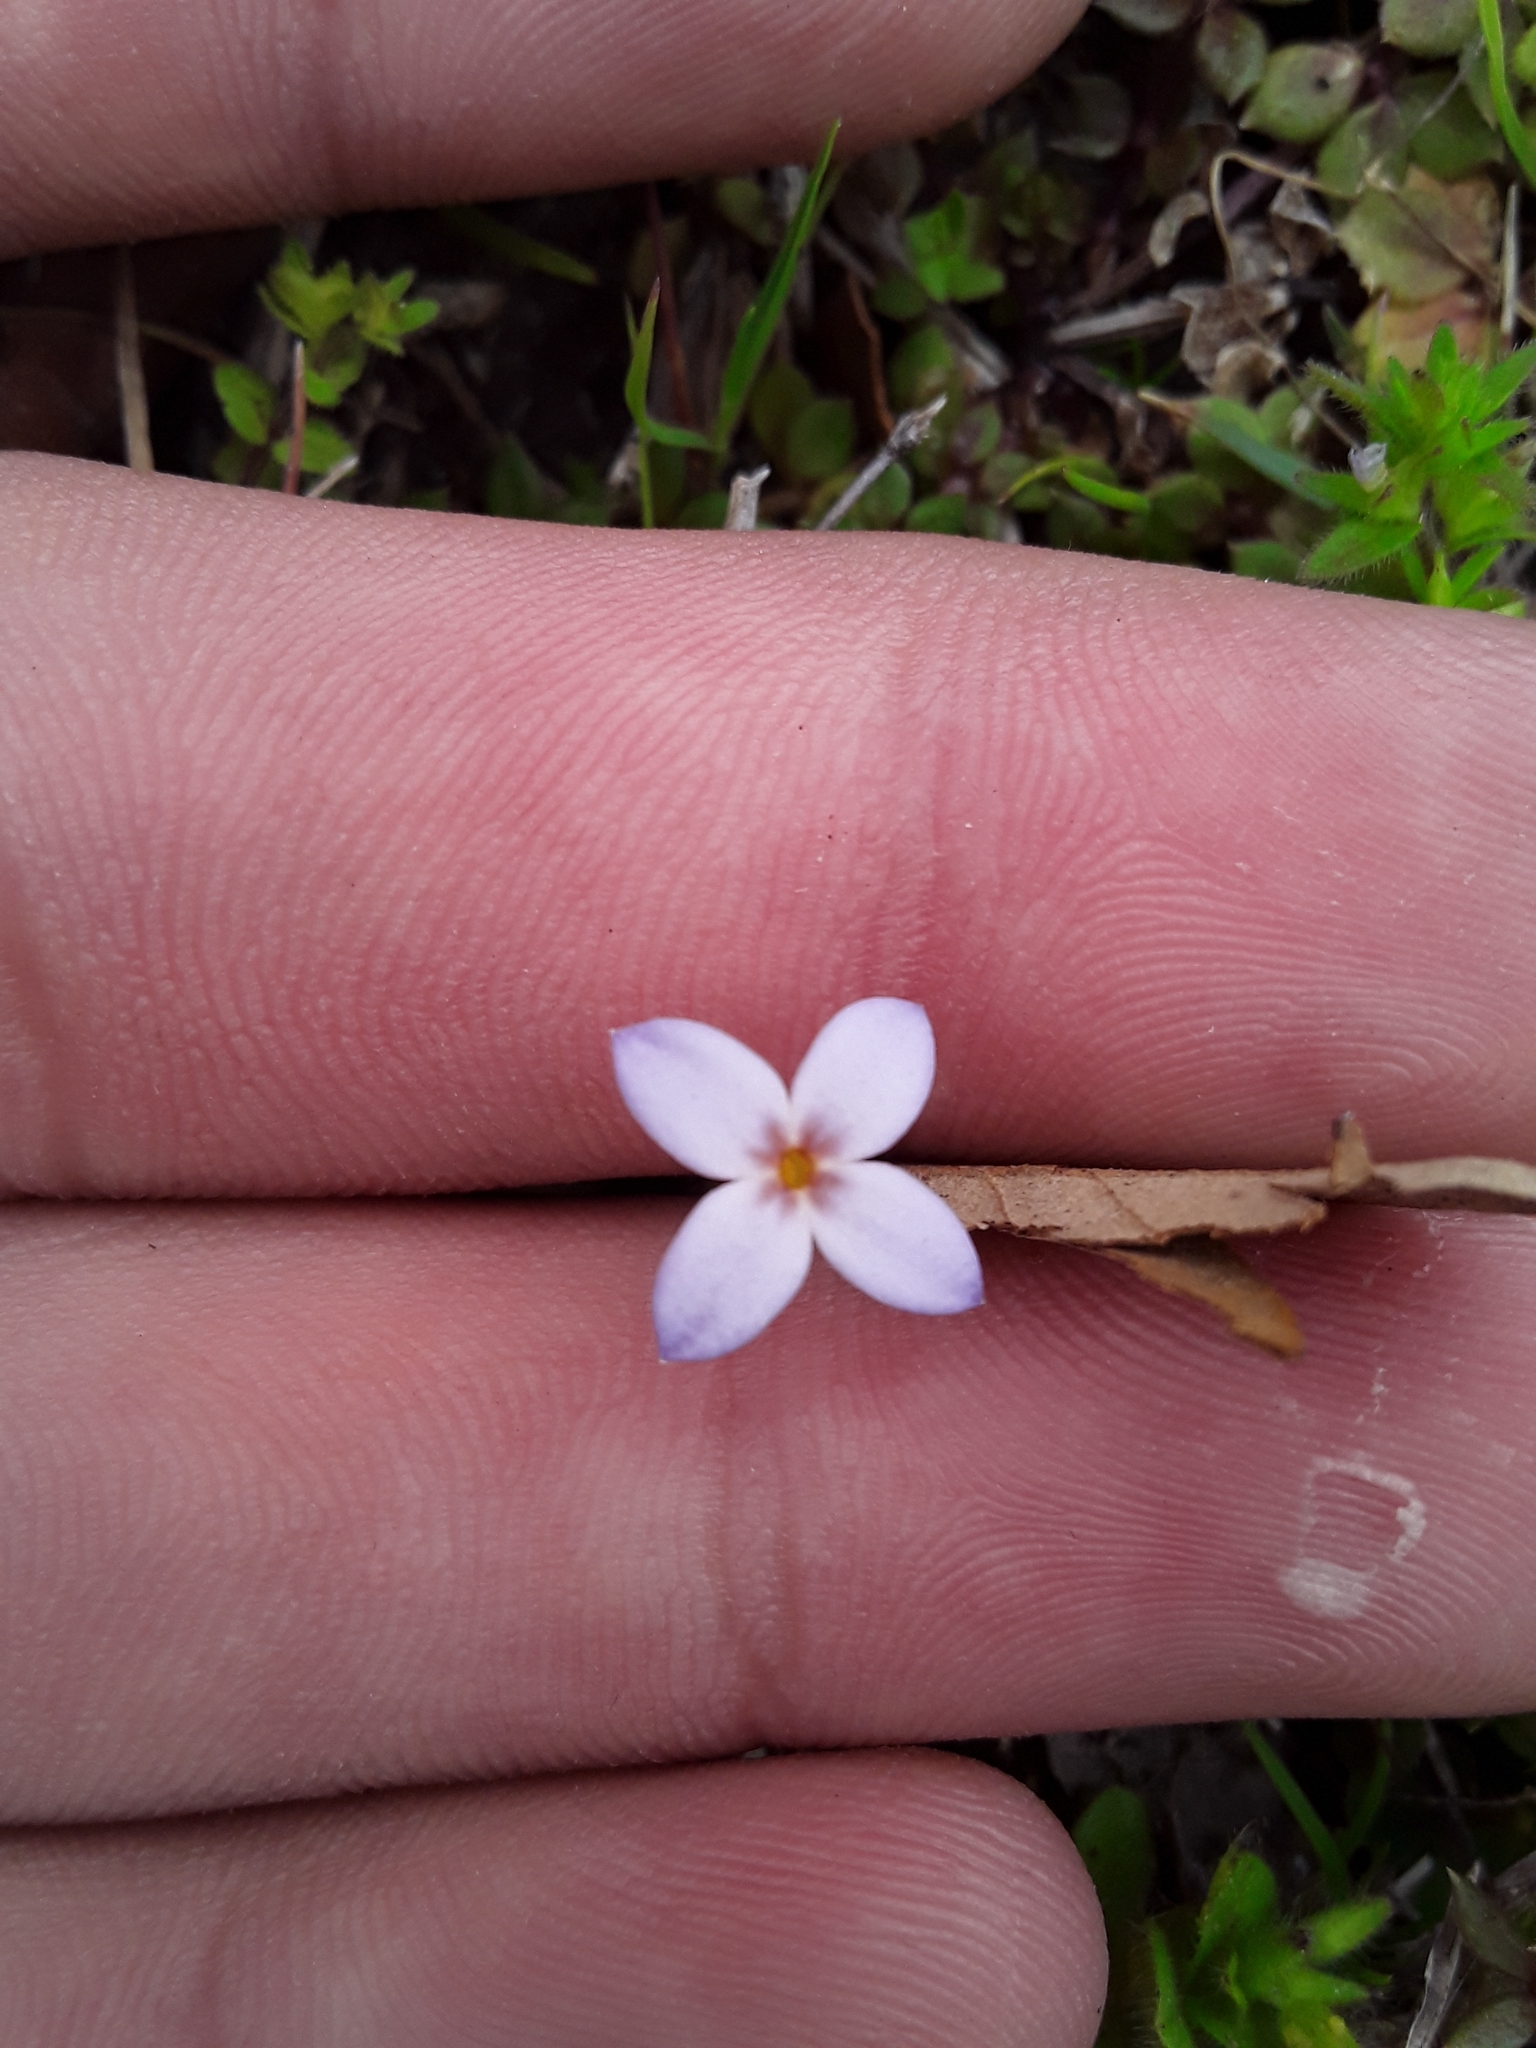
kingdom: Plantae
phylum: Tracheophyta
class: Magnoliopsida
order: Gentianales
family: Rubiaceae
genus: Houstonia
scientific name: Houstonia pusilla
